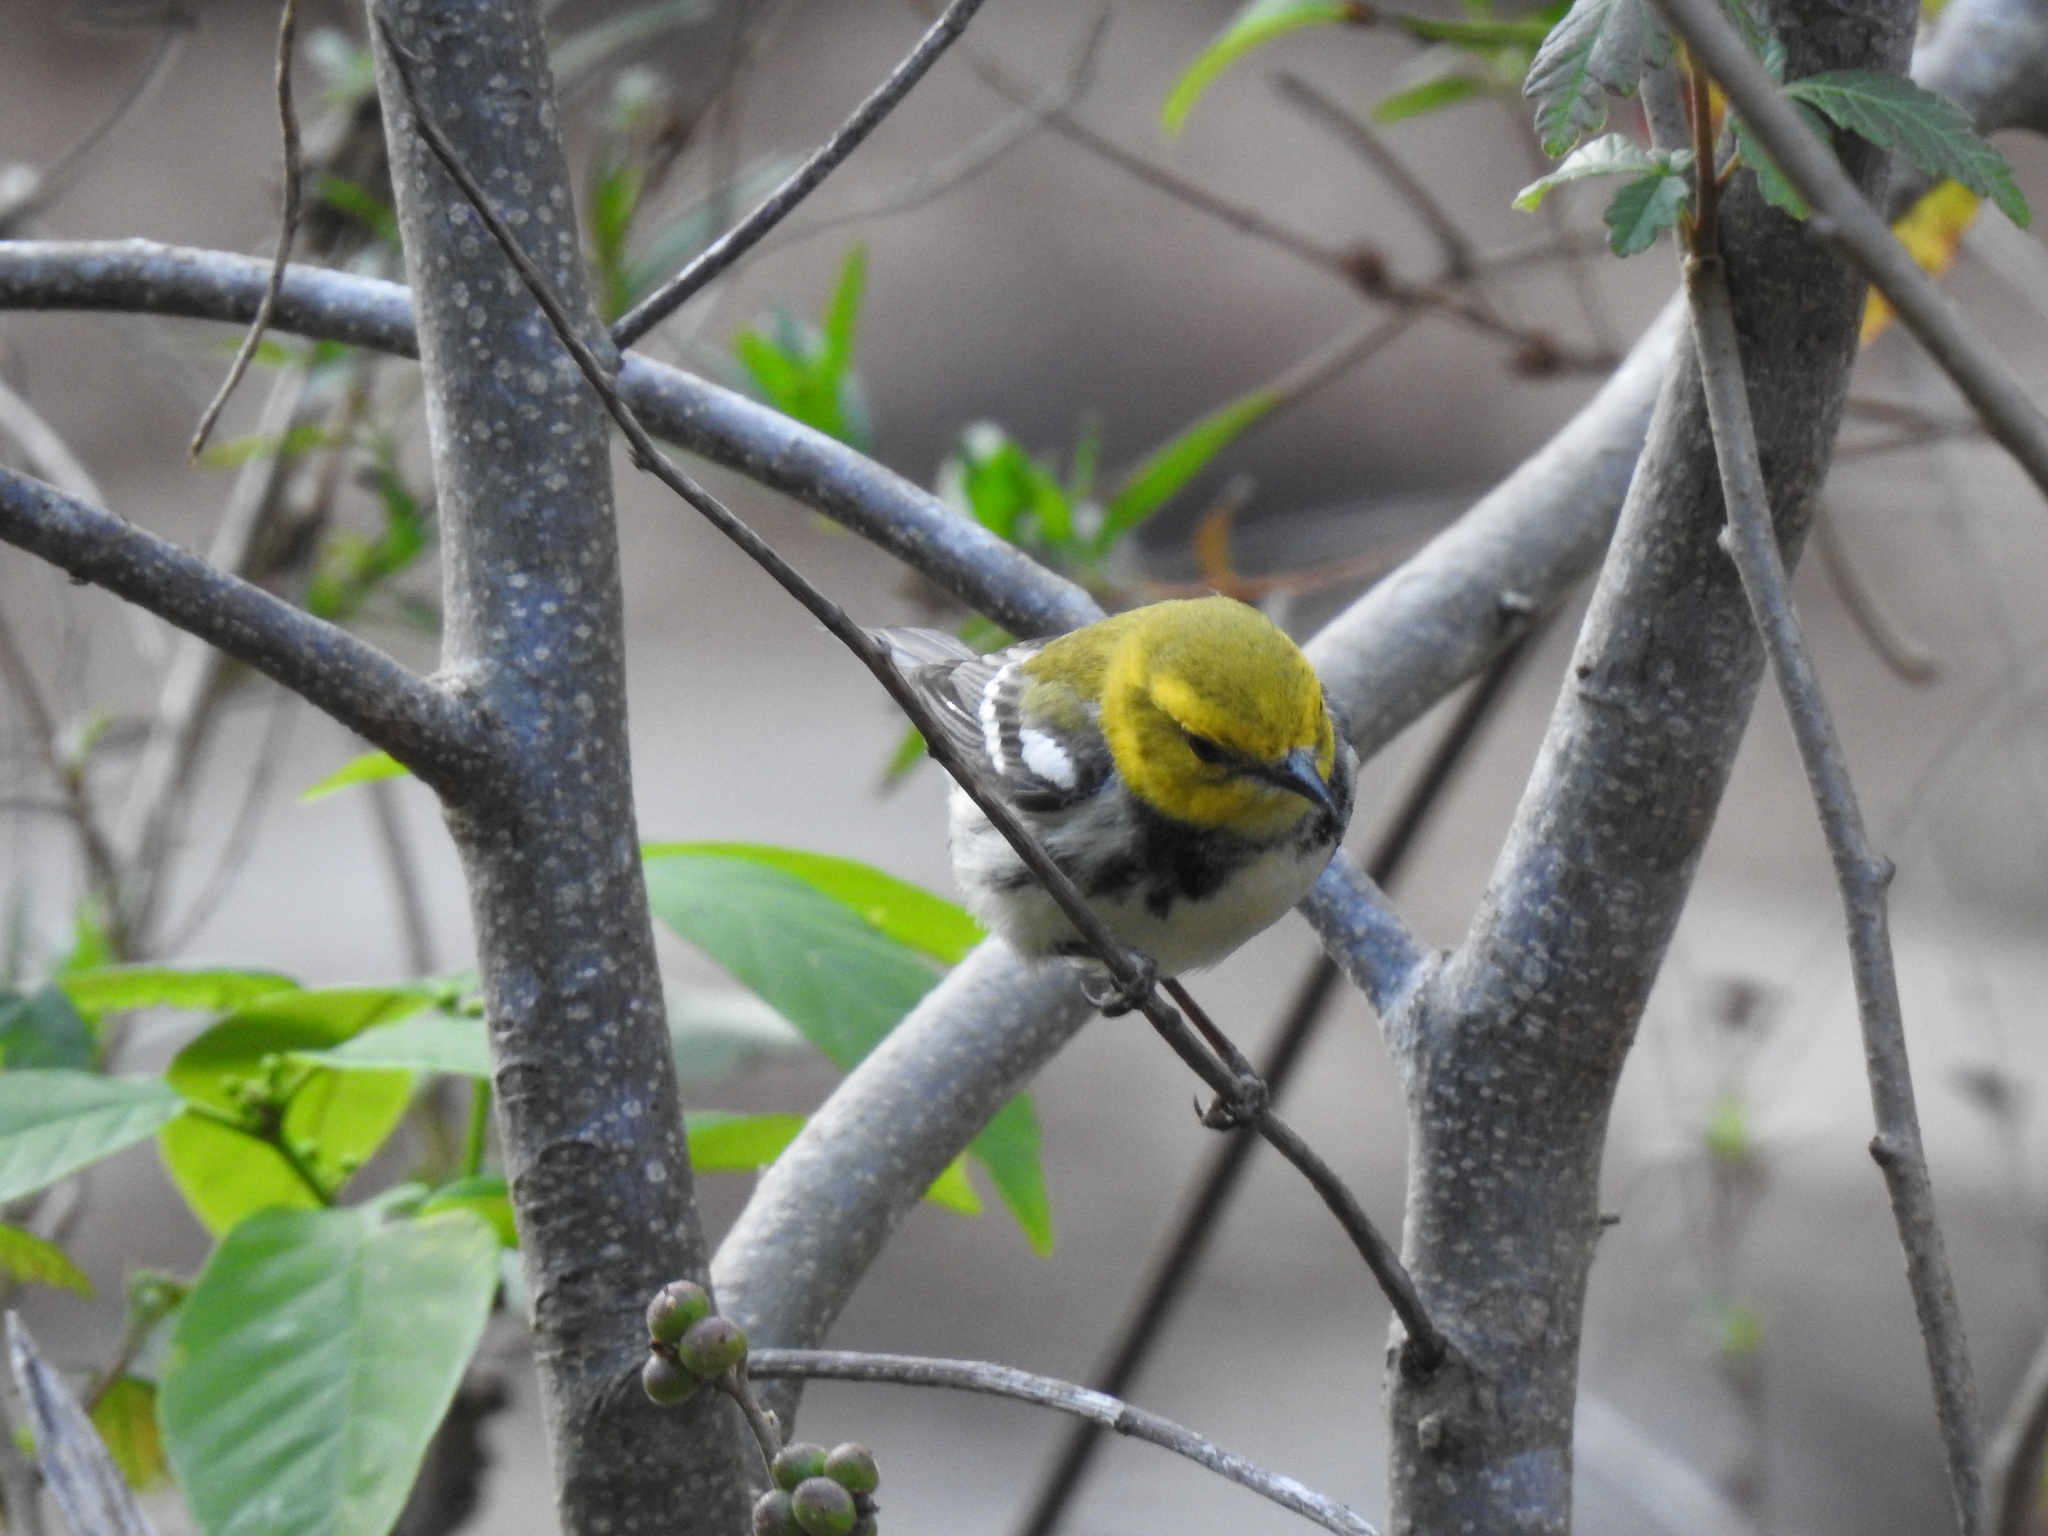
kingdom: Animalia
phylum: Chordata
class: Aves
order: Passeriformes
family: Parulidae
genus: Setophaga
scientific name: Setophaga virens
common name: Black-throated green warbler
